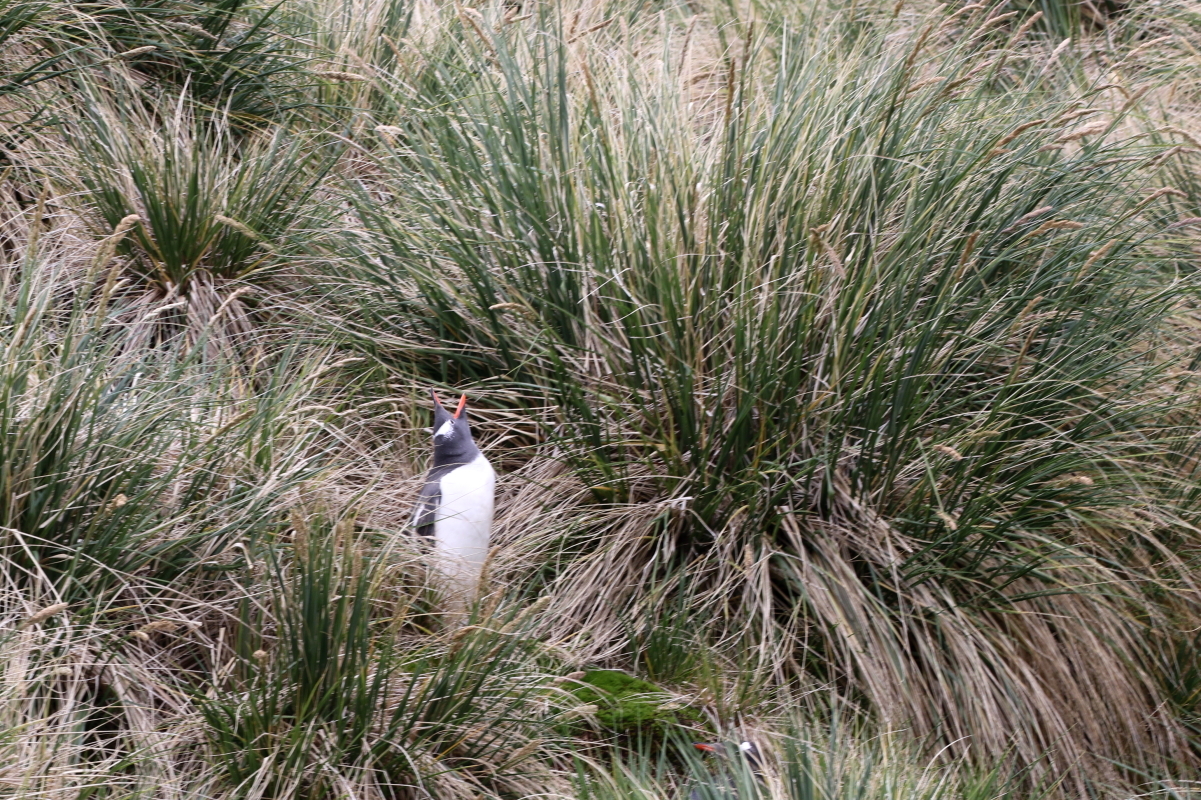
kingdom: Plantae
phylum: Tracheophyta
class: Liliopsida
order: Poales
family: Poaceae
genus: Poa
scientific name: Poa flabellata
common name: Tussac-grass
